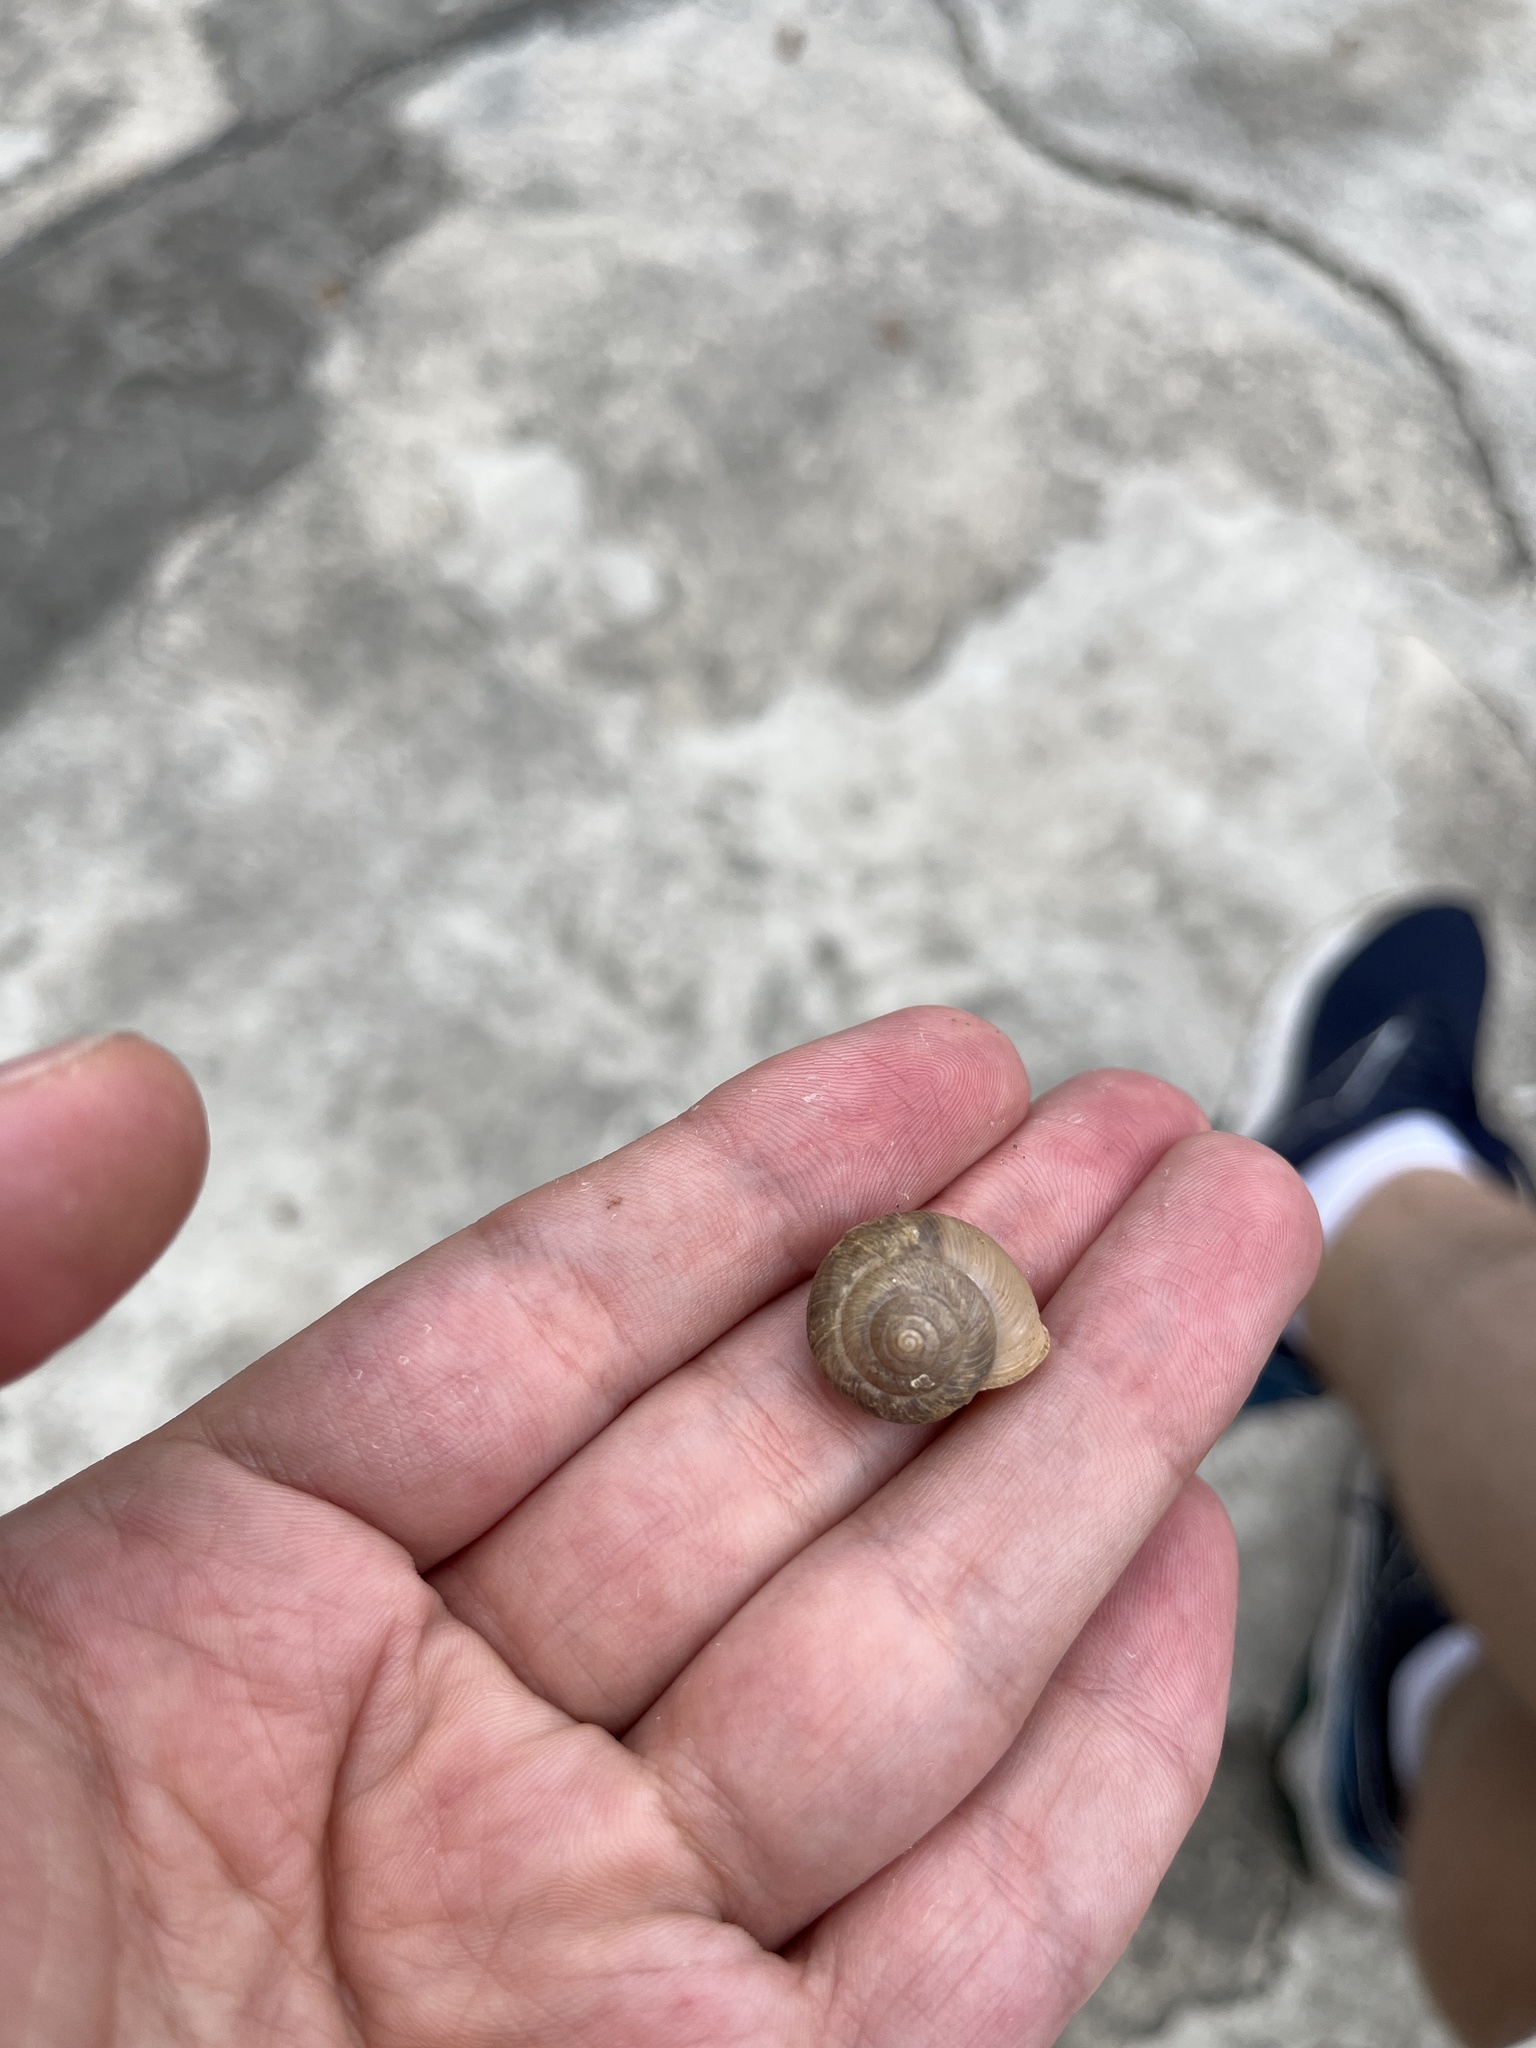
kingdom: Animalia
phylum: Mollusca
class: Gastropoda
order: Stylommatophora
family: Camaenidae
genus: Bradybaena
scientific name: Bradybaena jourdyi
